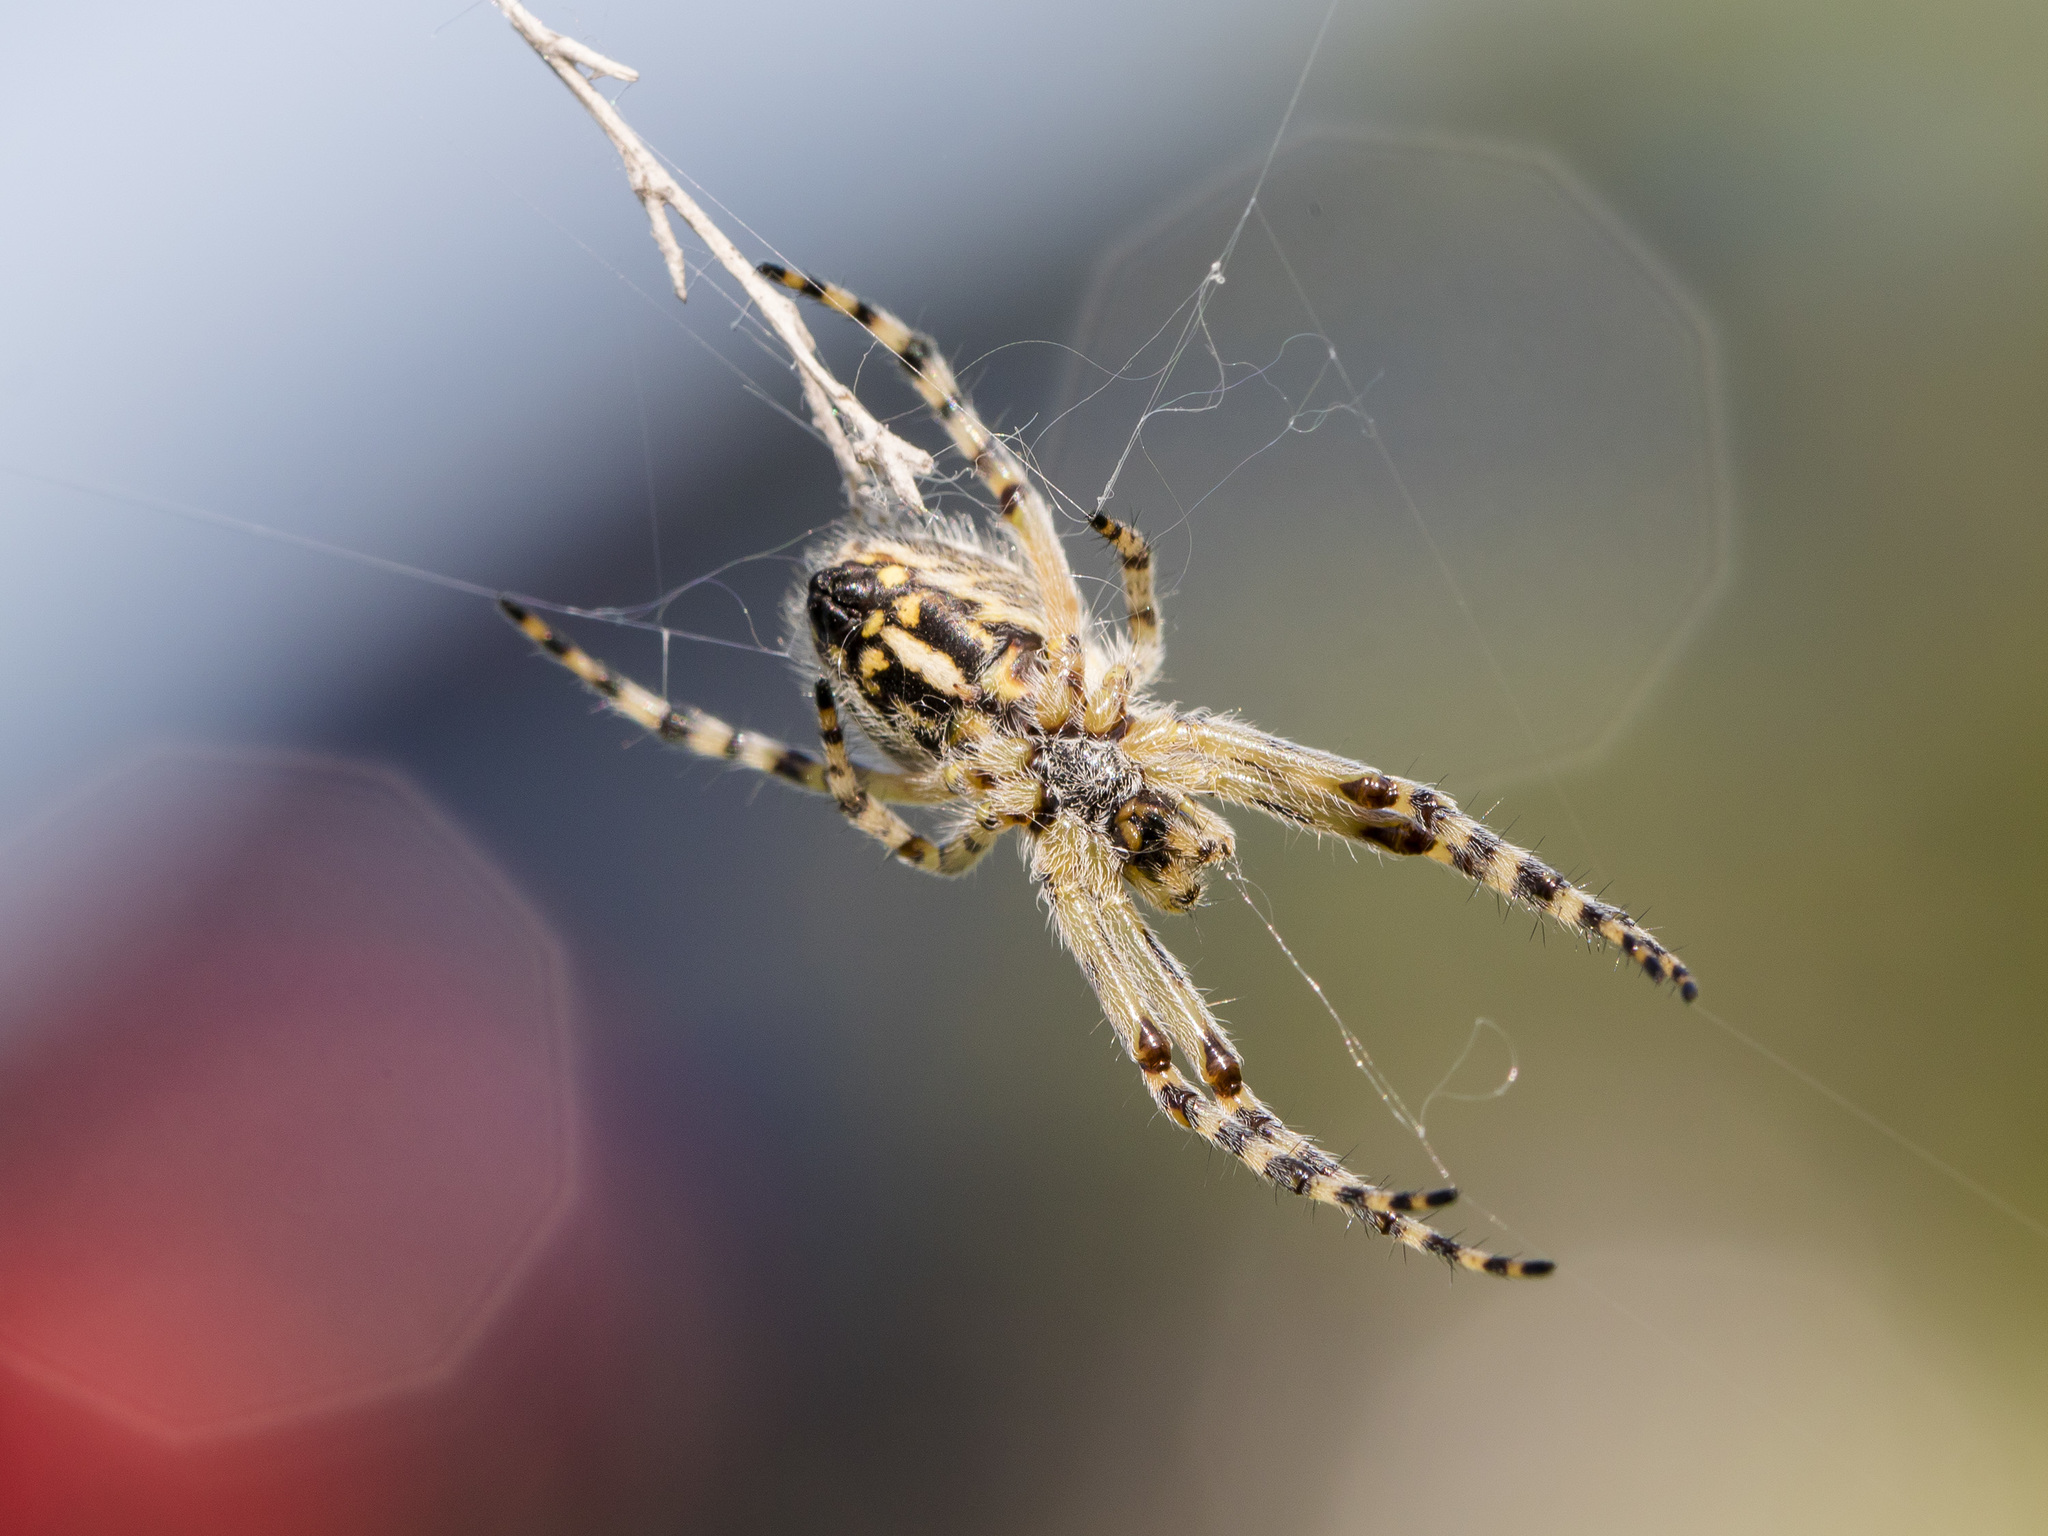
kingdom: Animalia
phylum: Arthropoda
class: Arachnida
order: Araneae
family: Araneidae
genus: Aculepeira
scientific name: Aculepeira armida
